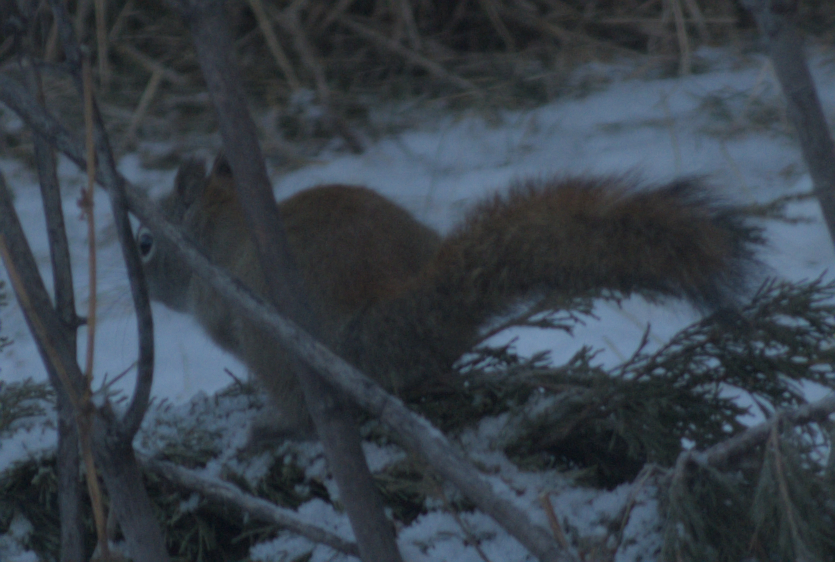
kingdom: Animalia
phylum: Chordata
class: Mammalia
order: Rodentia
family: Sciuridae
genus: Tamiasciurus
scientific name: Tamiasciurus hudsonicus
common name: Red squirrel
